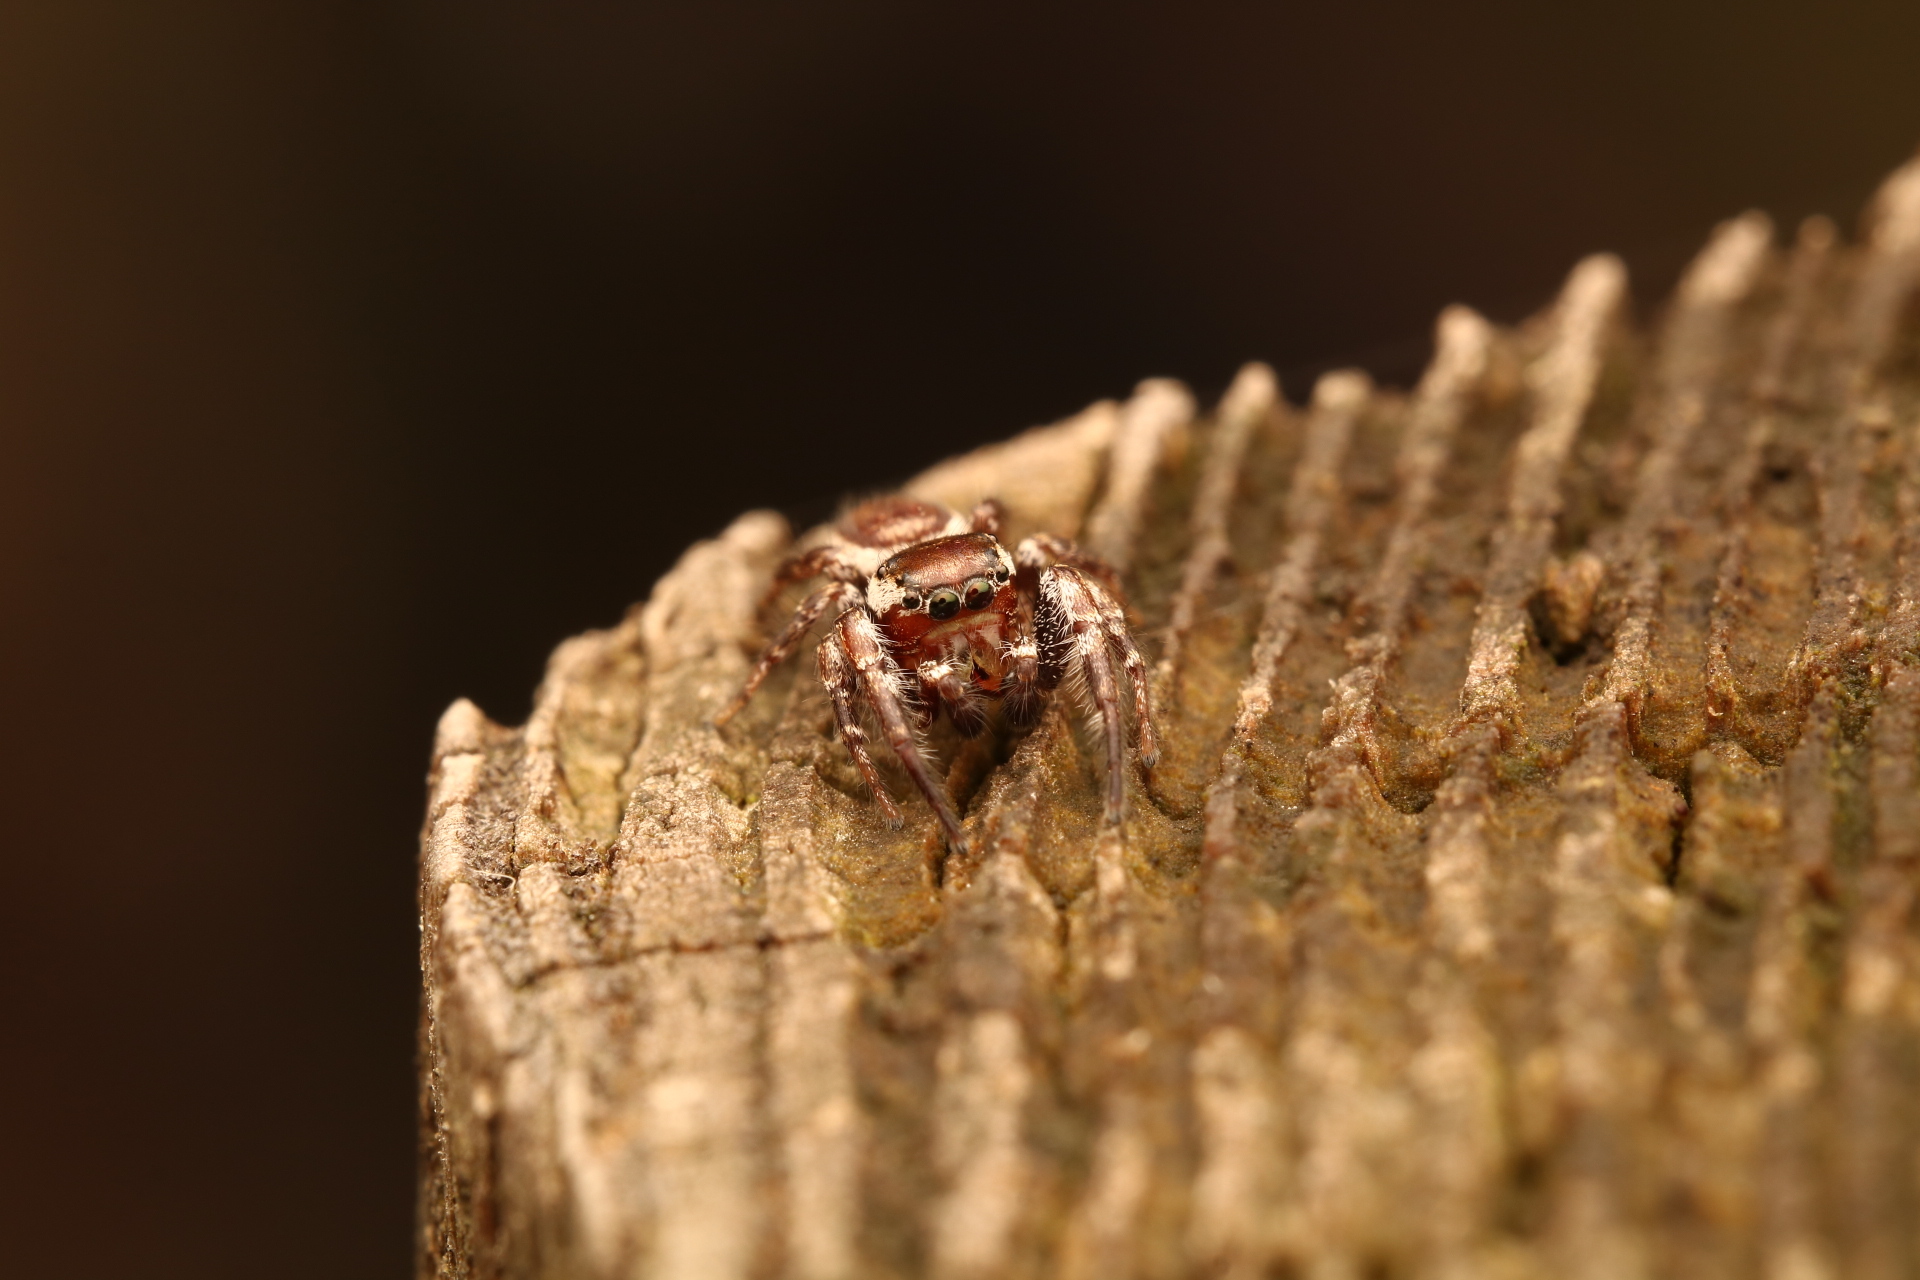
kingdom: Animalia
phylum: Arthropoda
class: Arachnida
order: Araneae
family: Salticidae
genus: Pelegrina
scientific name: Pelegrina exigua
